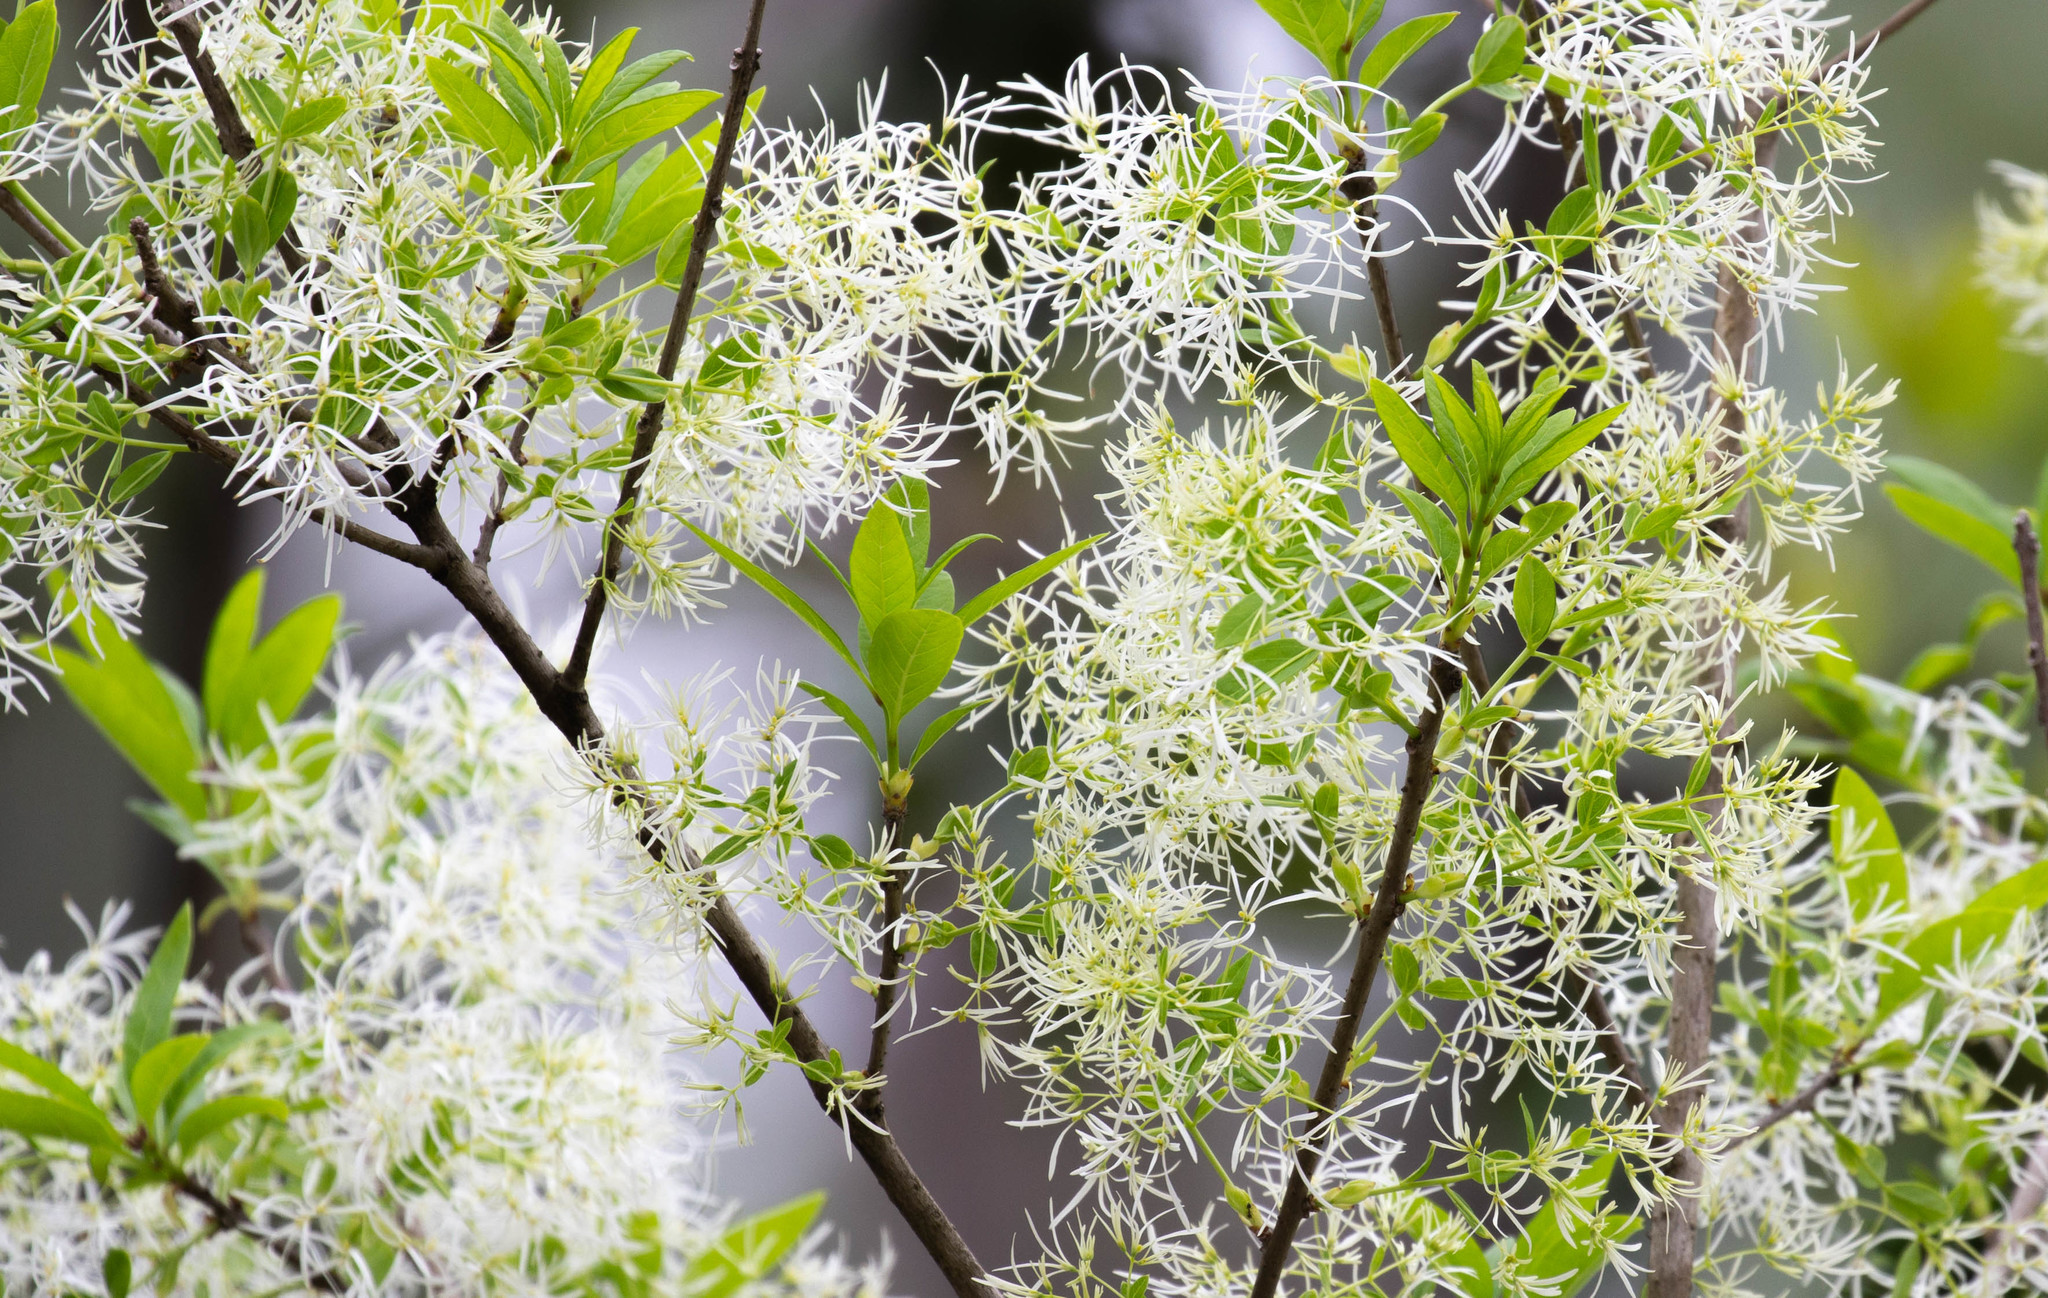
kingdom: Plantae
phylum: Tracheophyta
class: Magnoliopsida
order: Lamiales
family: Oleaceae
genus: Chionanthus
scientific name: Chionanthus virginicus
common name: American fringetree
